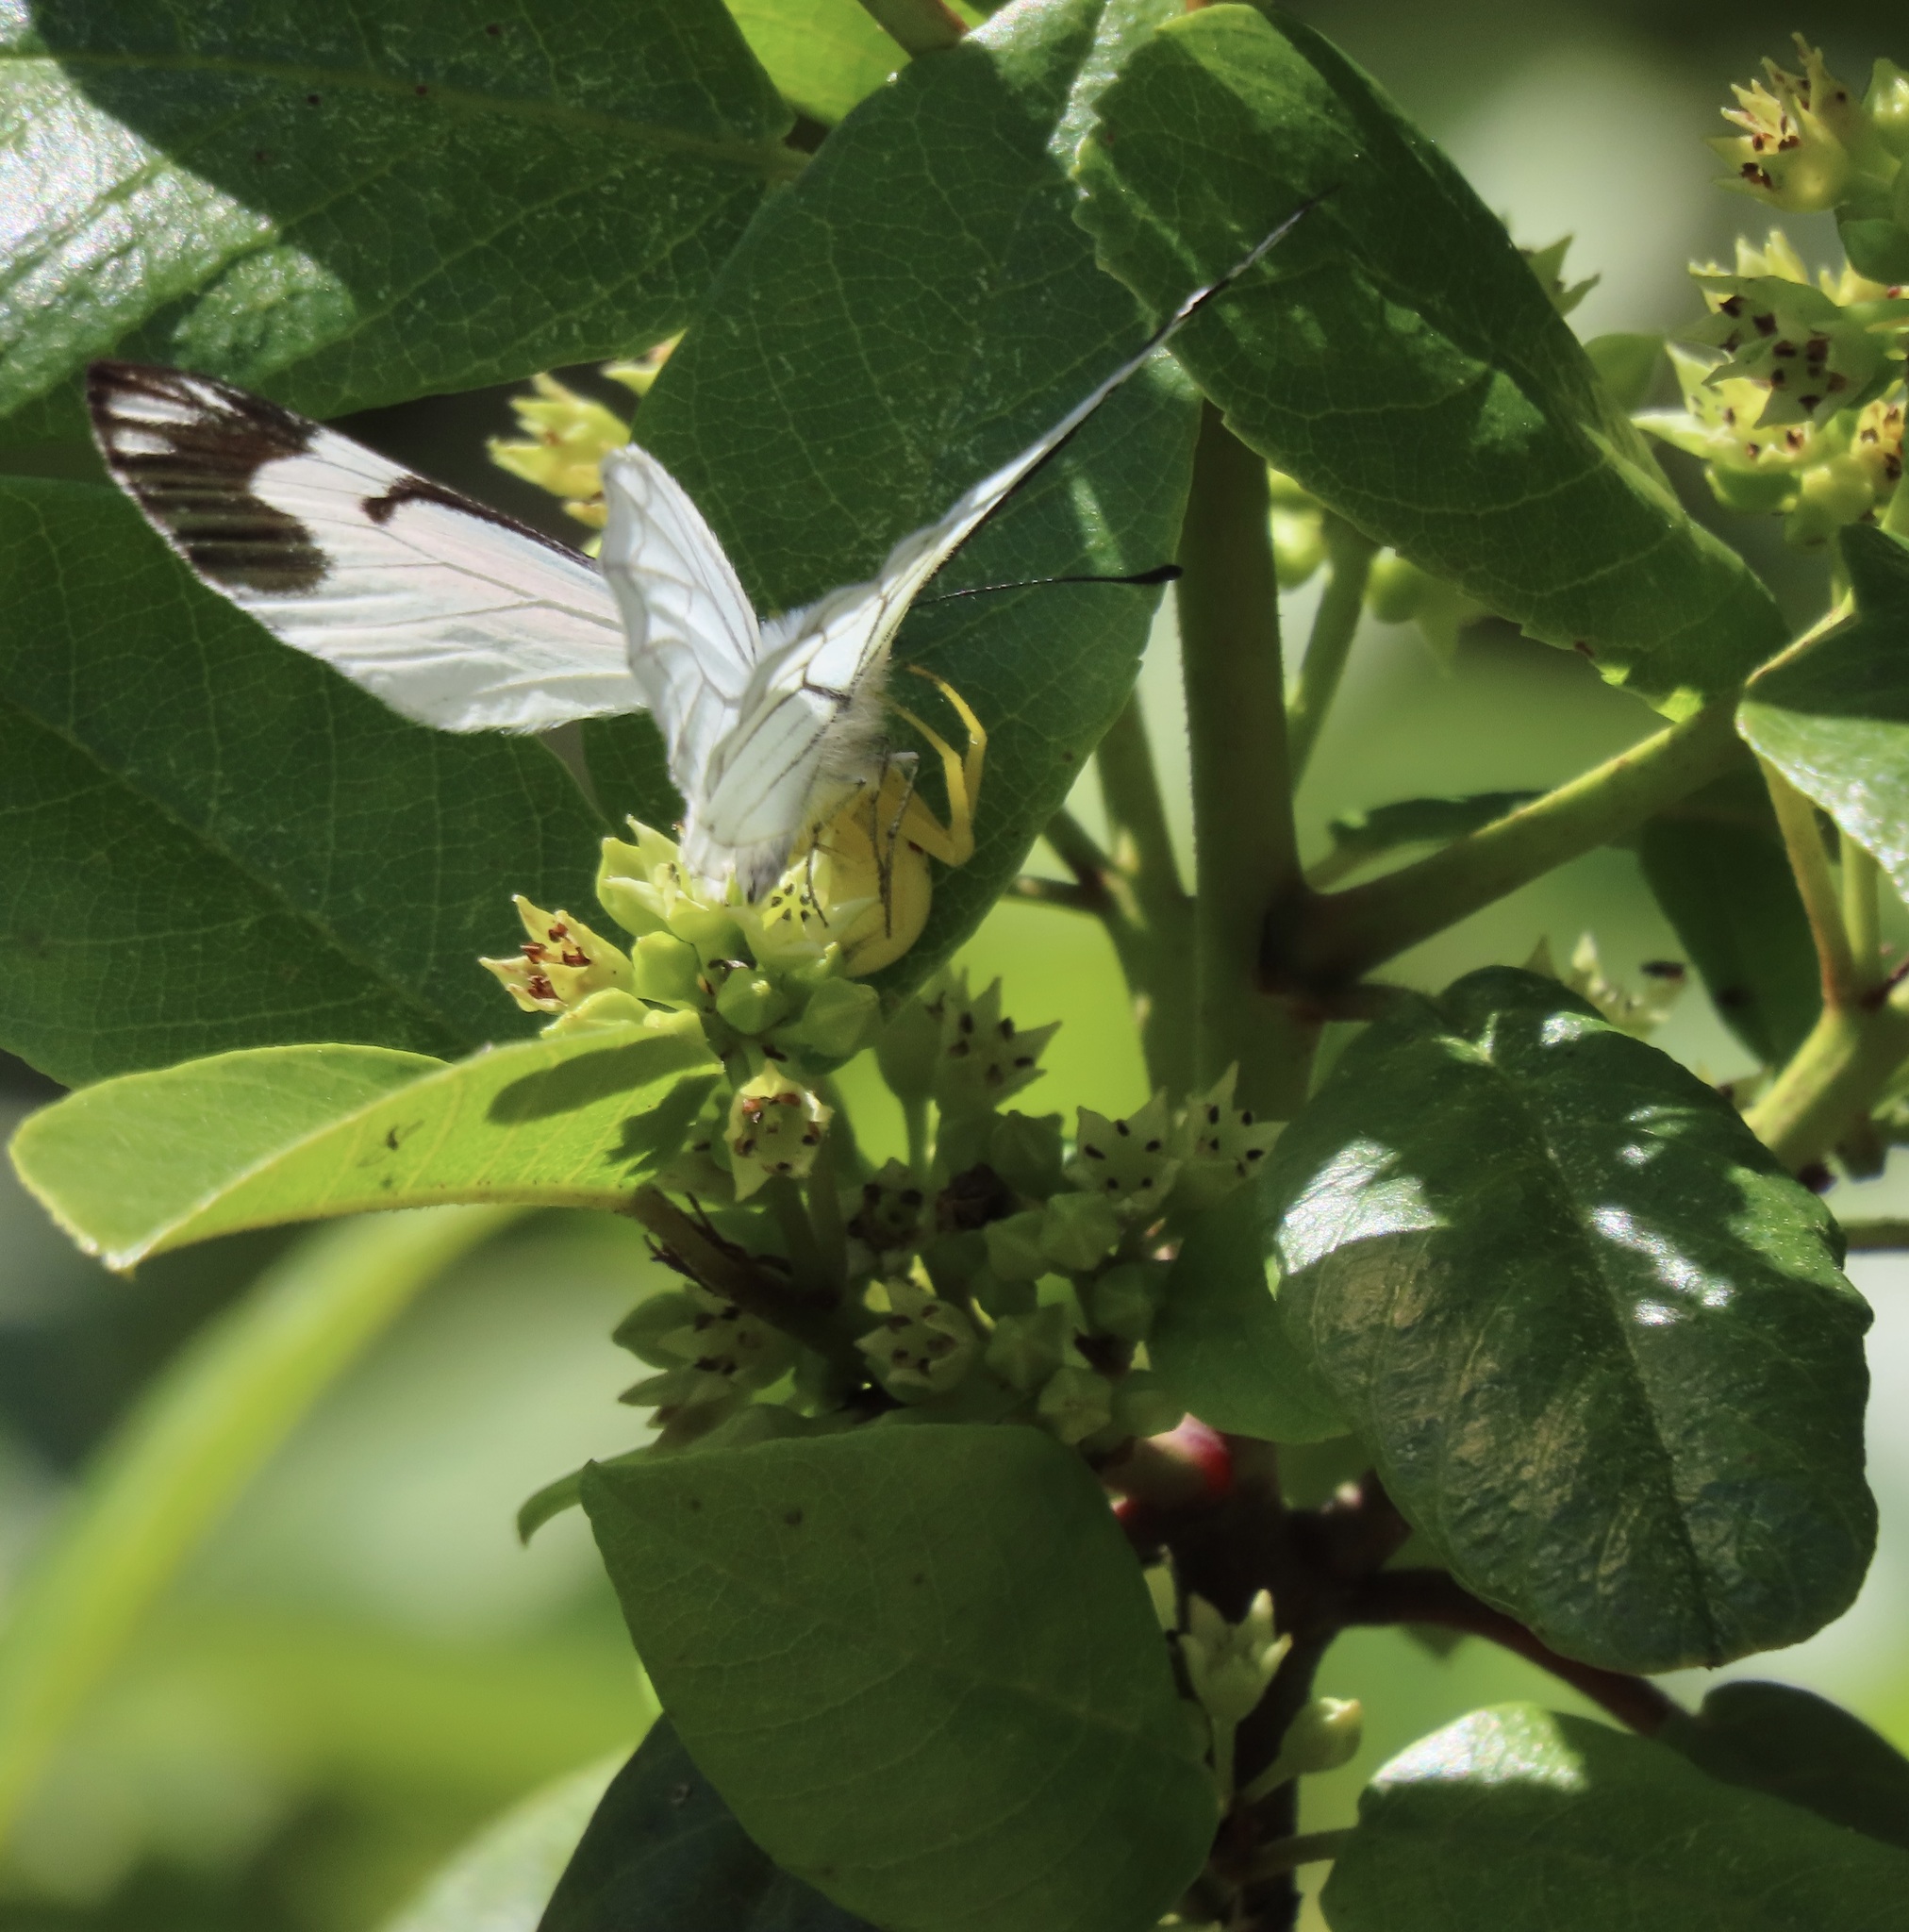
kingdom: Animalia
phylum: Arthropoda
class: Arachnida
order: Araneae
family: Thomisidae
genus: Misumena
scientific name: Misumena vatia
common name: Goldenrod crab spider
